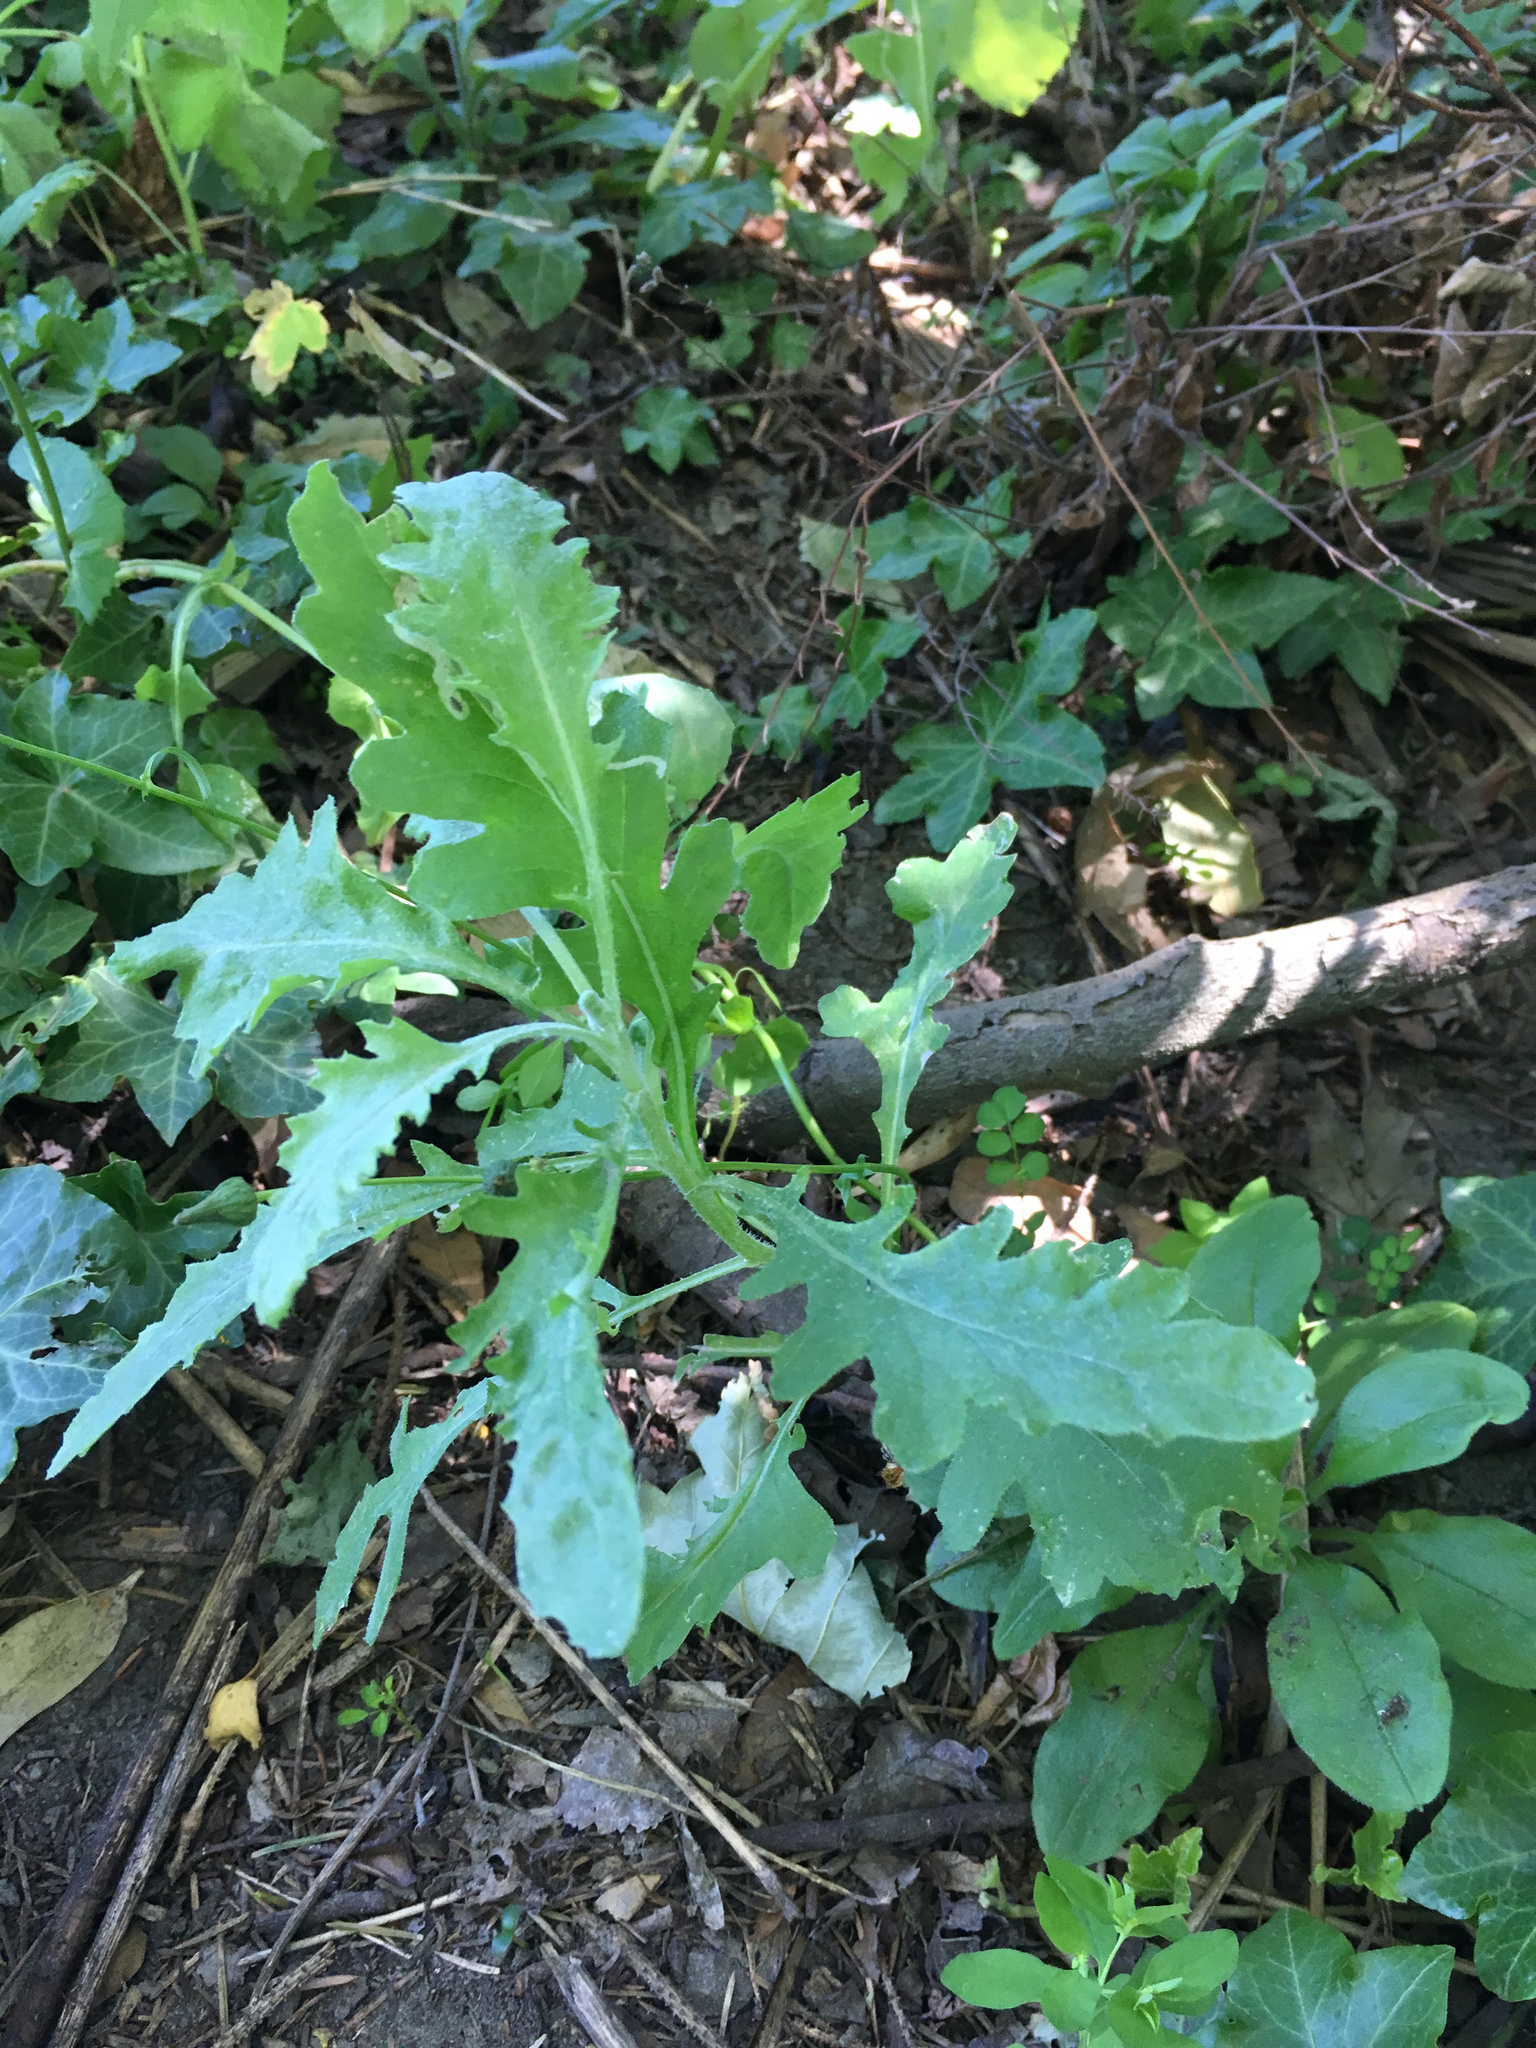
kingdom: Plantae
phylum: Tracheophyta
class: Magnoliopsida
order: Asterales
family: Asteraceae
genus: Senecio
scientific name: Senecio glomeratus
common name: Cutleaf burnweed
